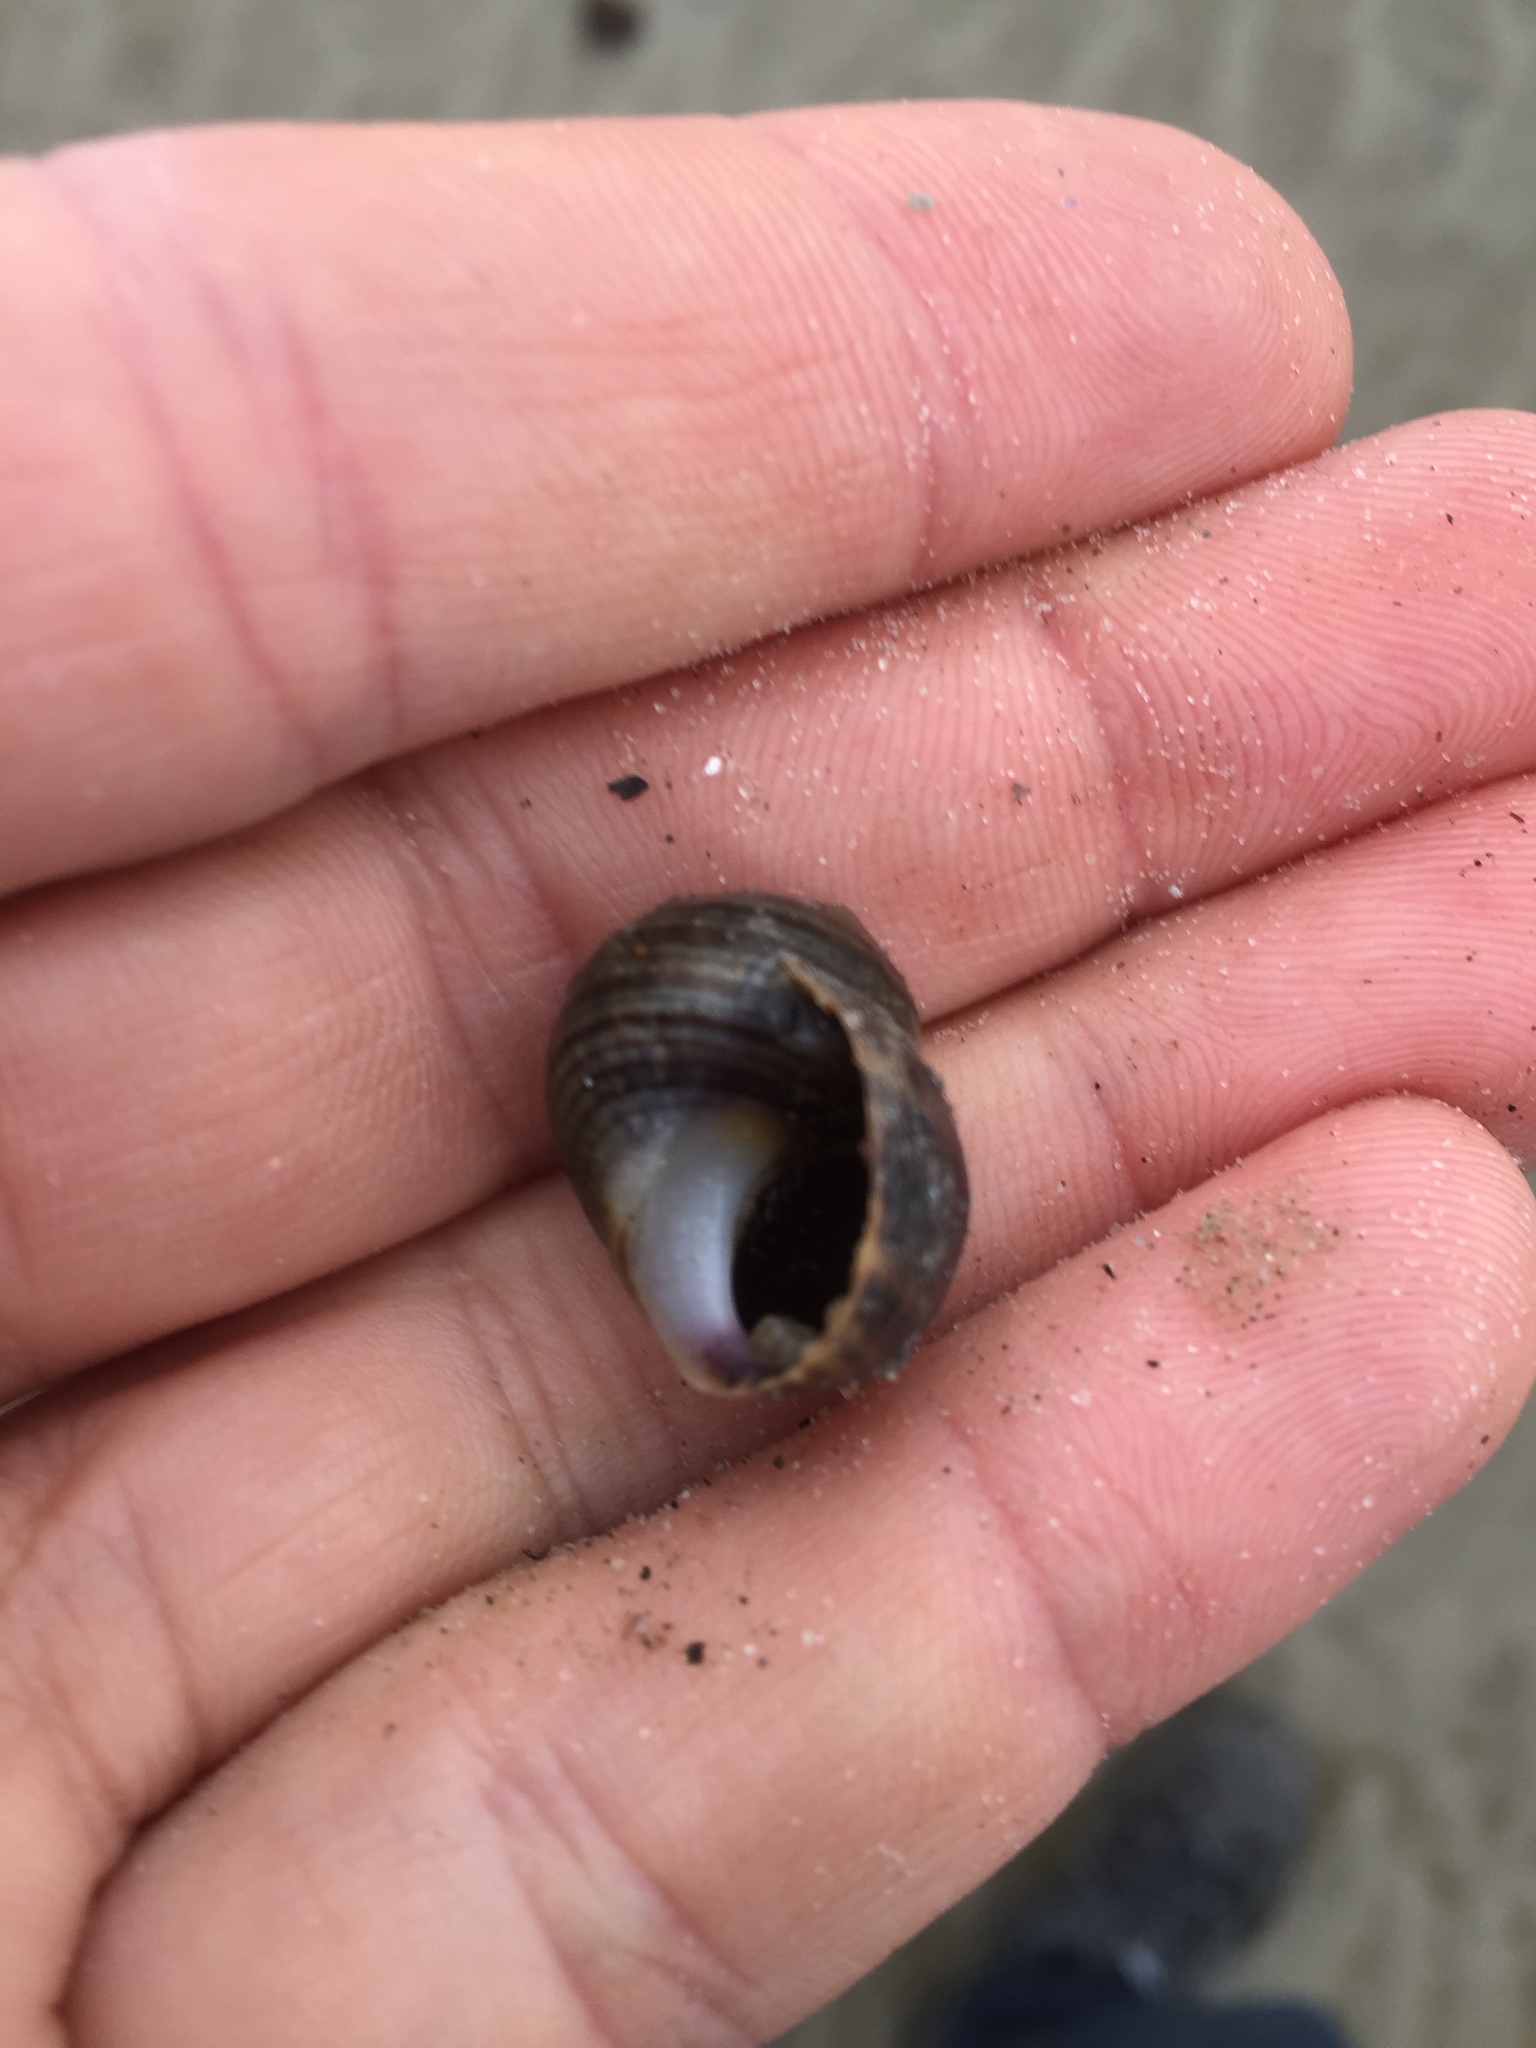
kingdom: Animalia
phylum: Mollusca
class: Gastropoda
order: Littorinimorpha
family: Littorinidae
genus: Littorina
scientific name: Littorina littorea
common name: Common periwinkle
